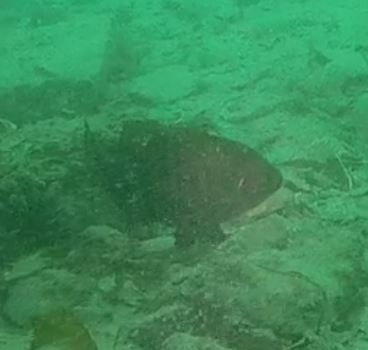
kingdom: Animalia
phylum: Chordata
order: Perciformes
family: Embiotocidae
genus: Embiotoca
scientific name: Embiotoca jacksoni
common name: Black perch
